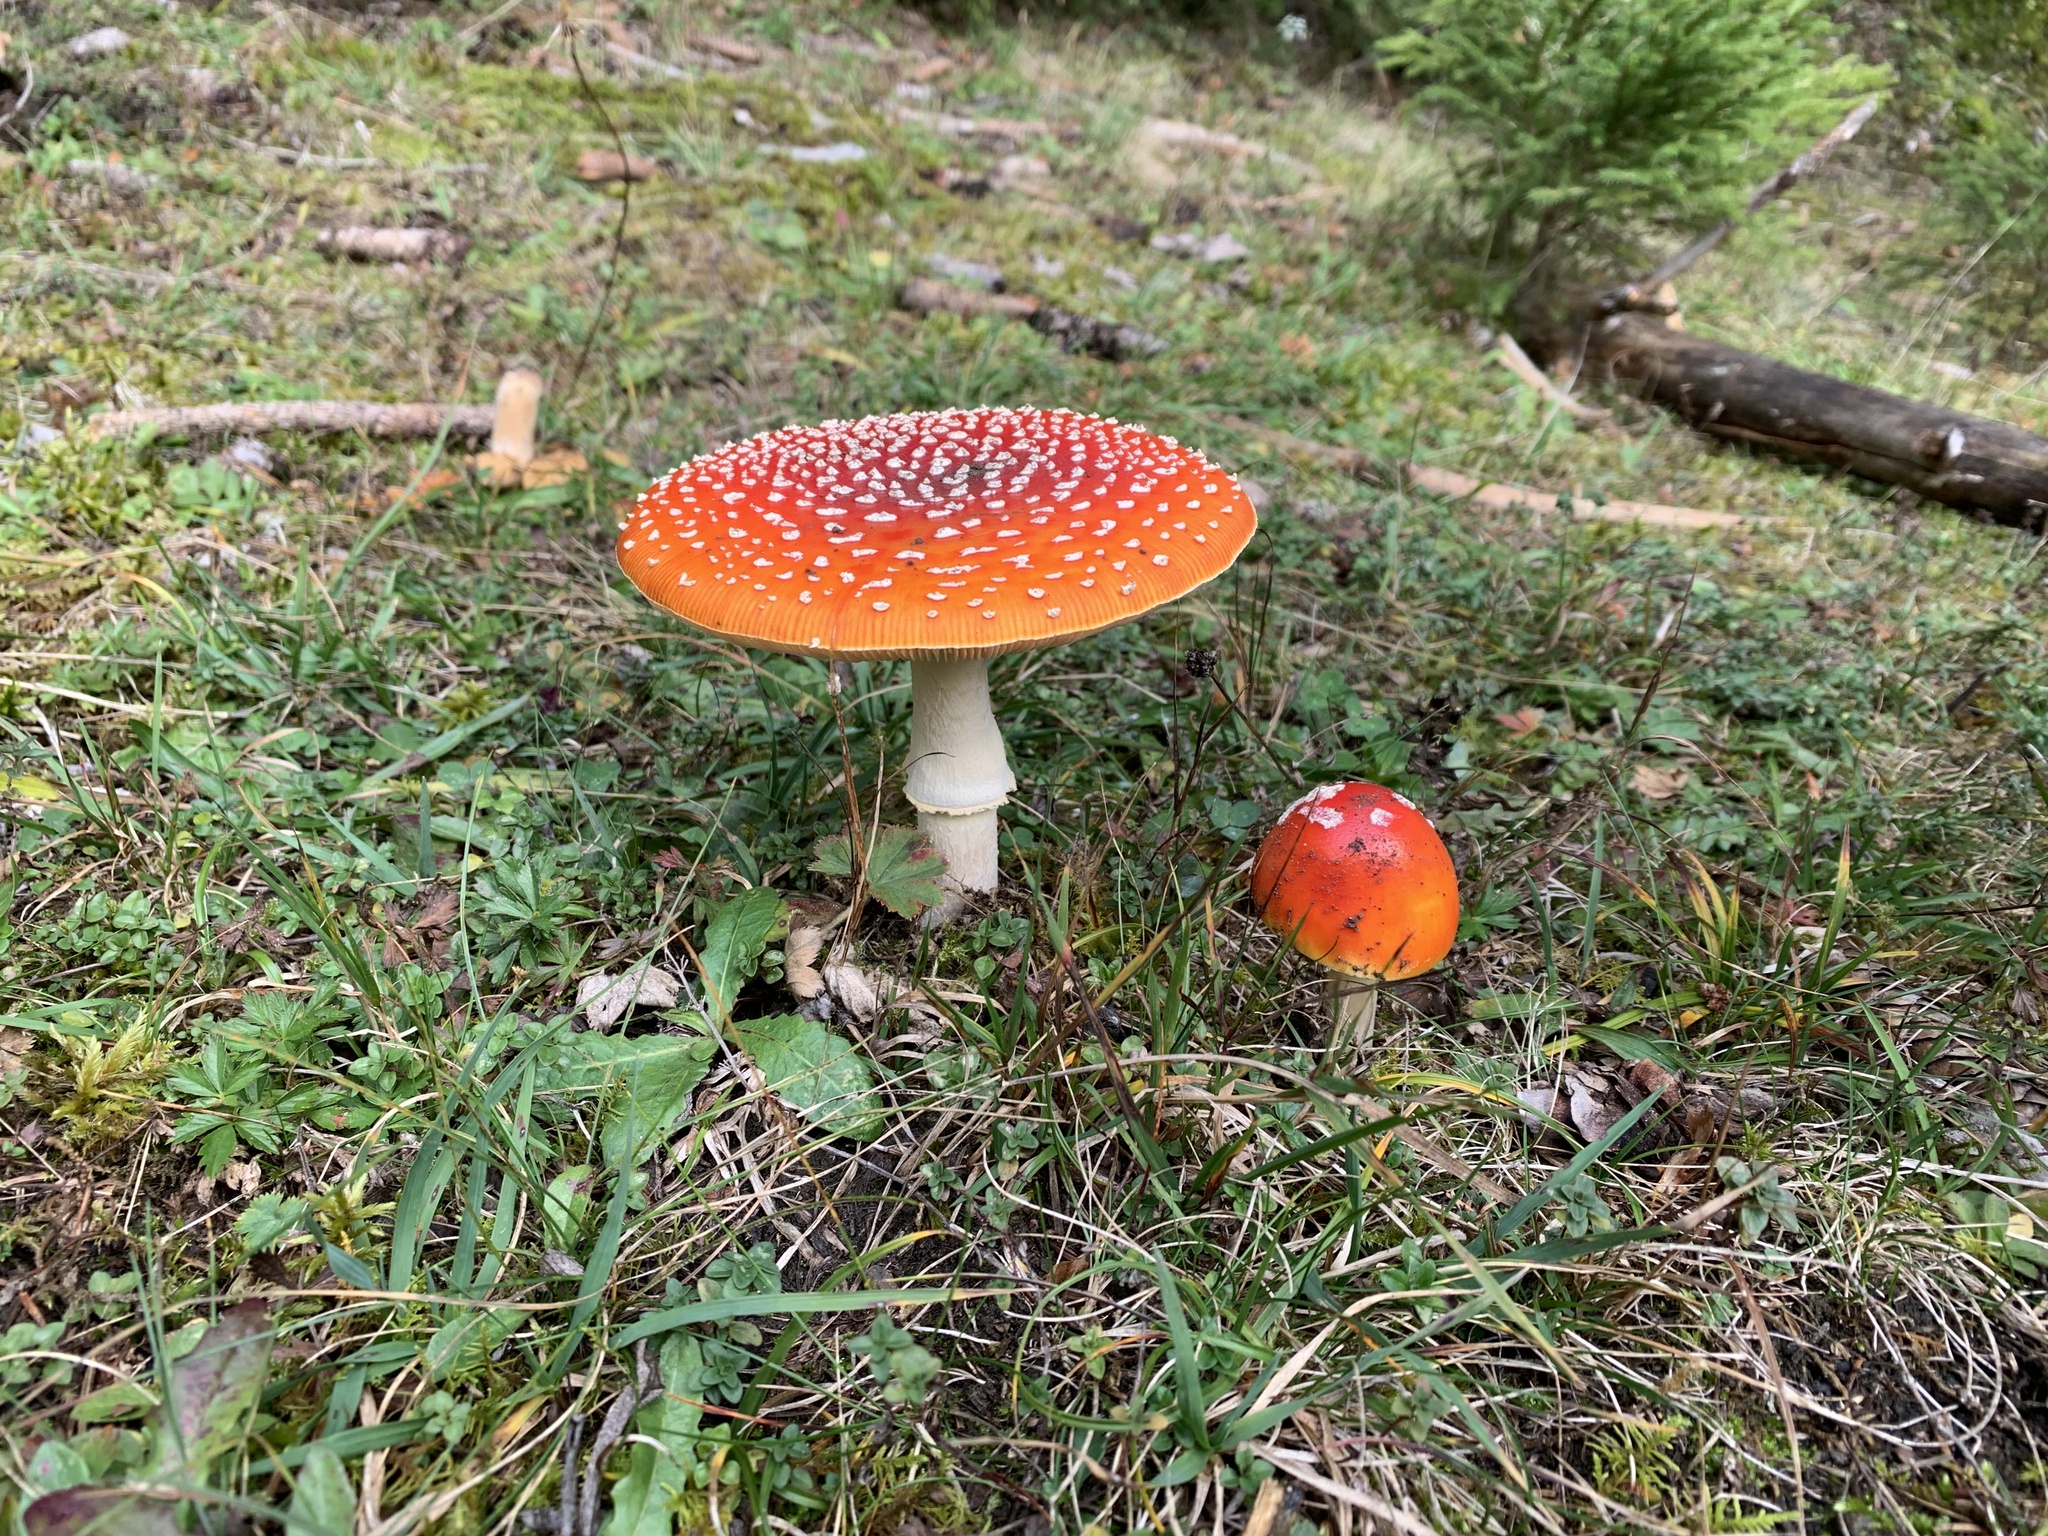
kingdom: Fungi
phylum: Basidiomycota
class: Agaricomycetes
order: Agaricales
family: Amanitaceae
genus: Amanita
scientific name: Amanita muscaria
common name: Fly agaric
